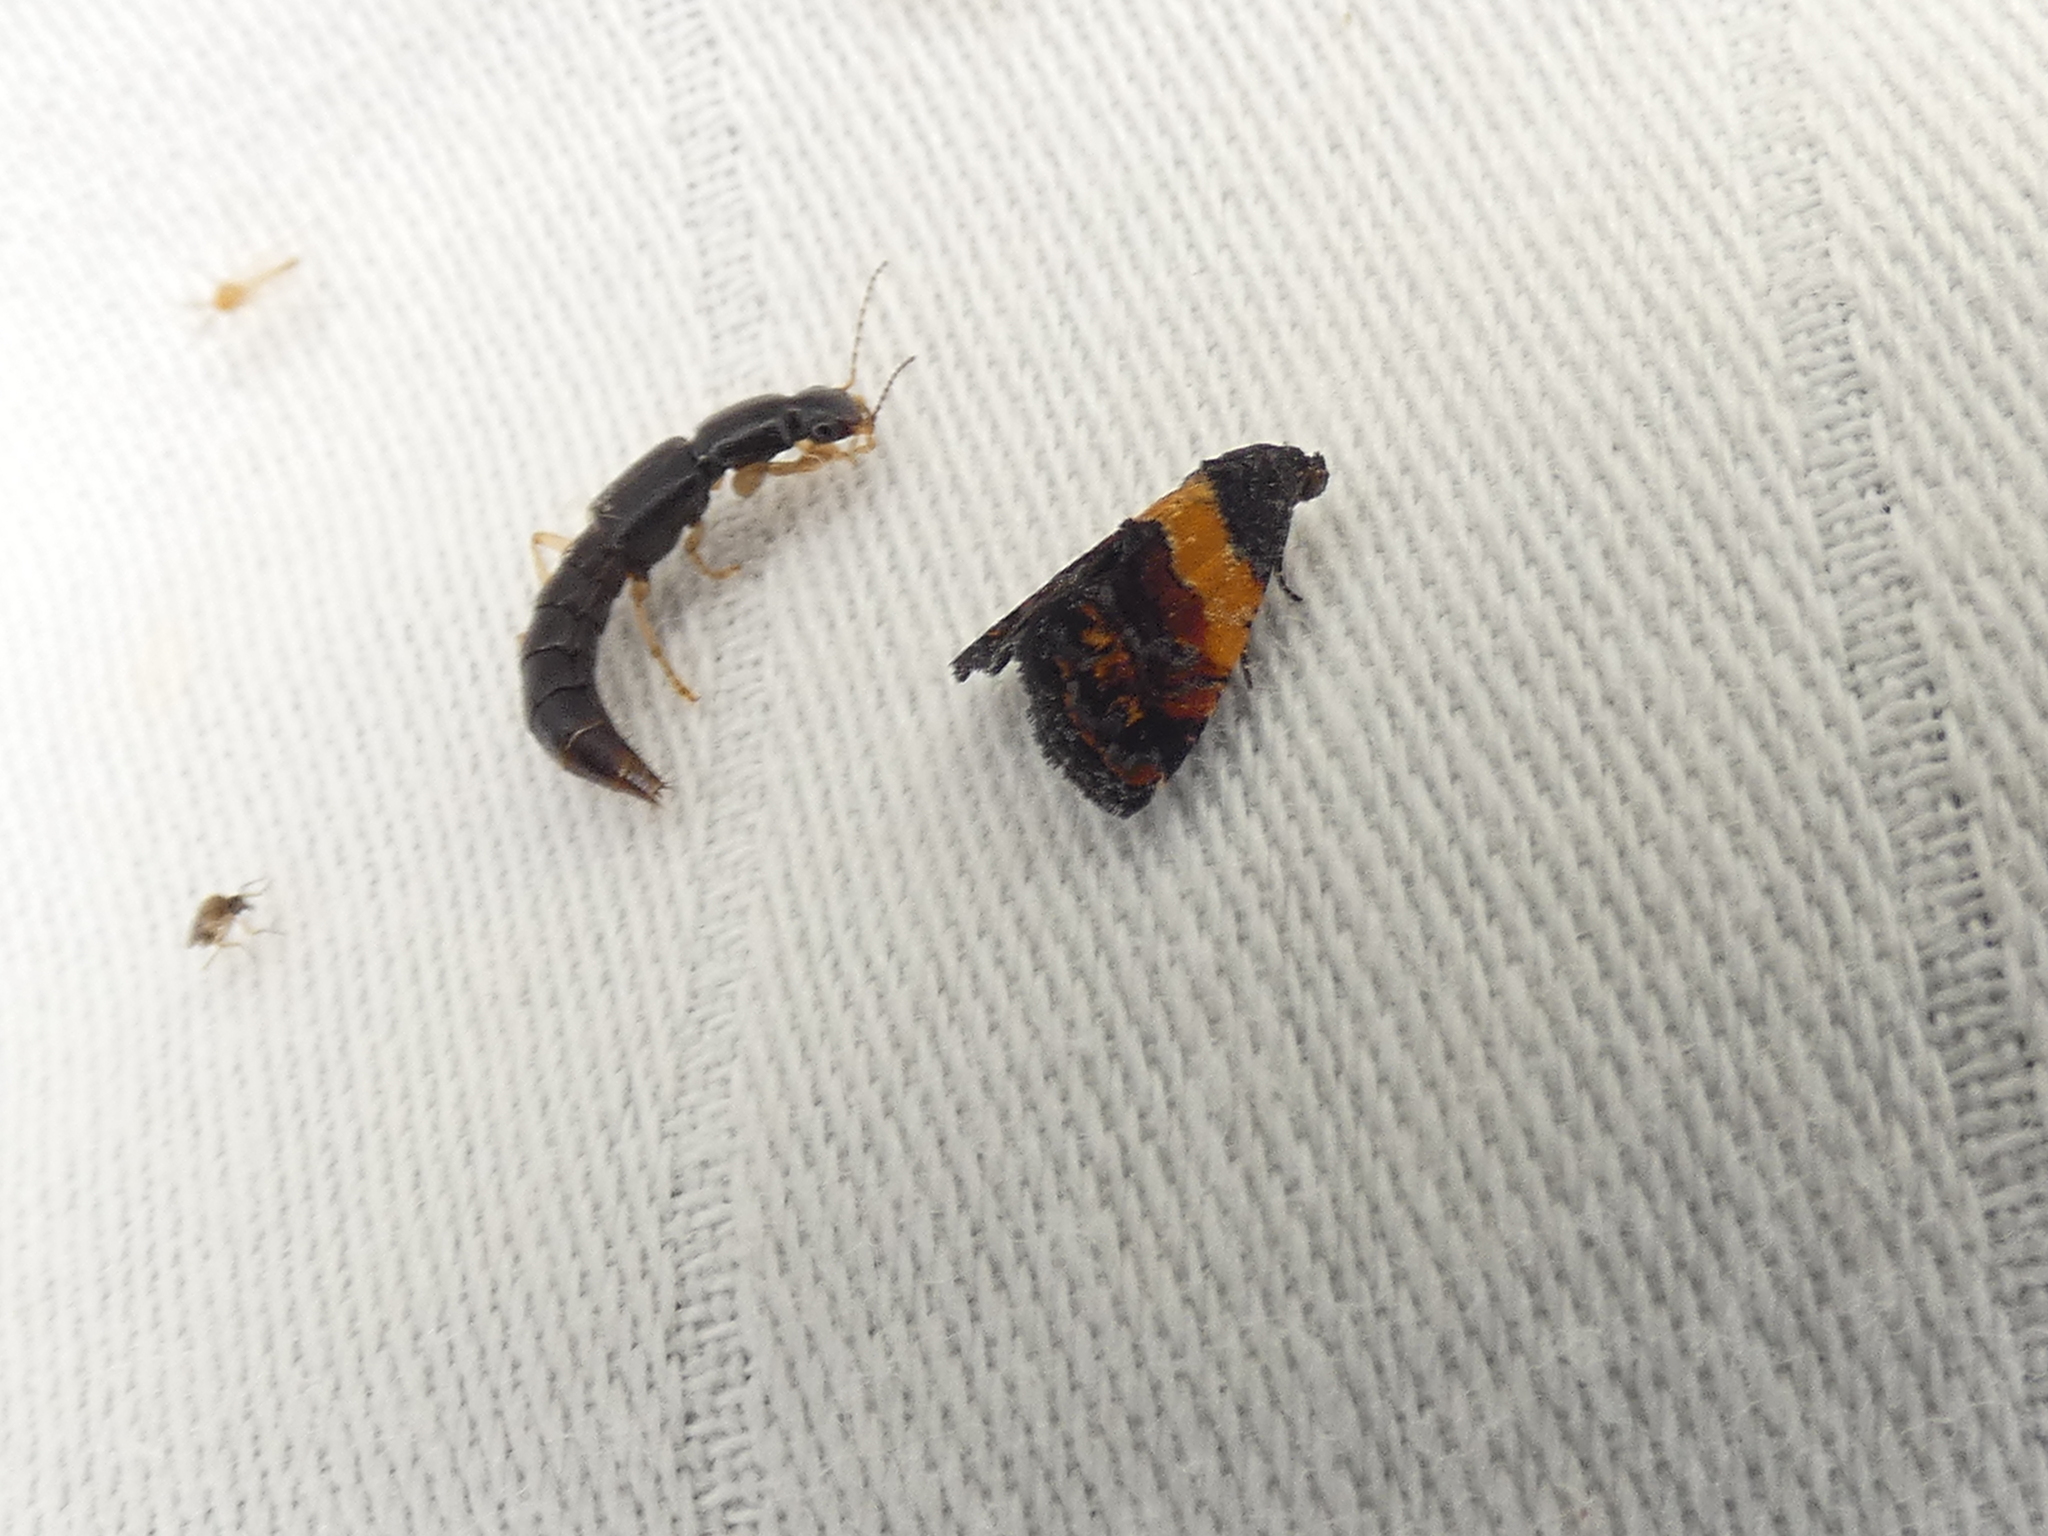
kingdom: Animalia
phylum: Arthropoda
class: Insecta
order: Lepidoptera
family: Noctuidae
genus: Tripudia
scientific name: Tripudia flavofasciata
